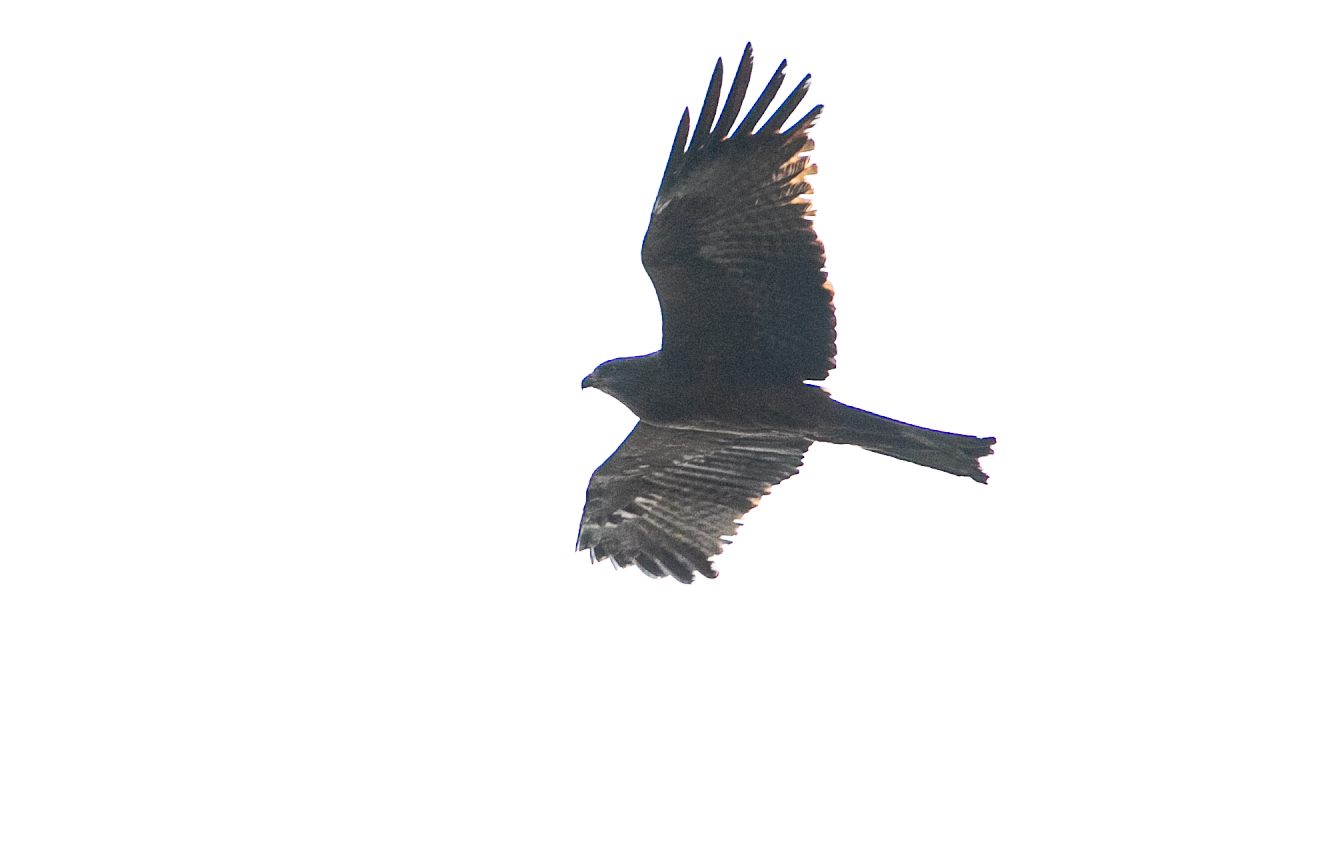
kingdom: Animalia
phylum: Chordata
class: Aves
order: Accipitriformes
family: Accipitridae
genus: Milvus
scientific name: Milvus migrans
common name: Black kite
